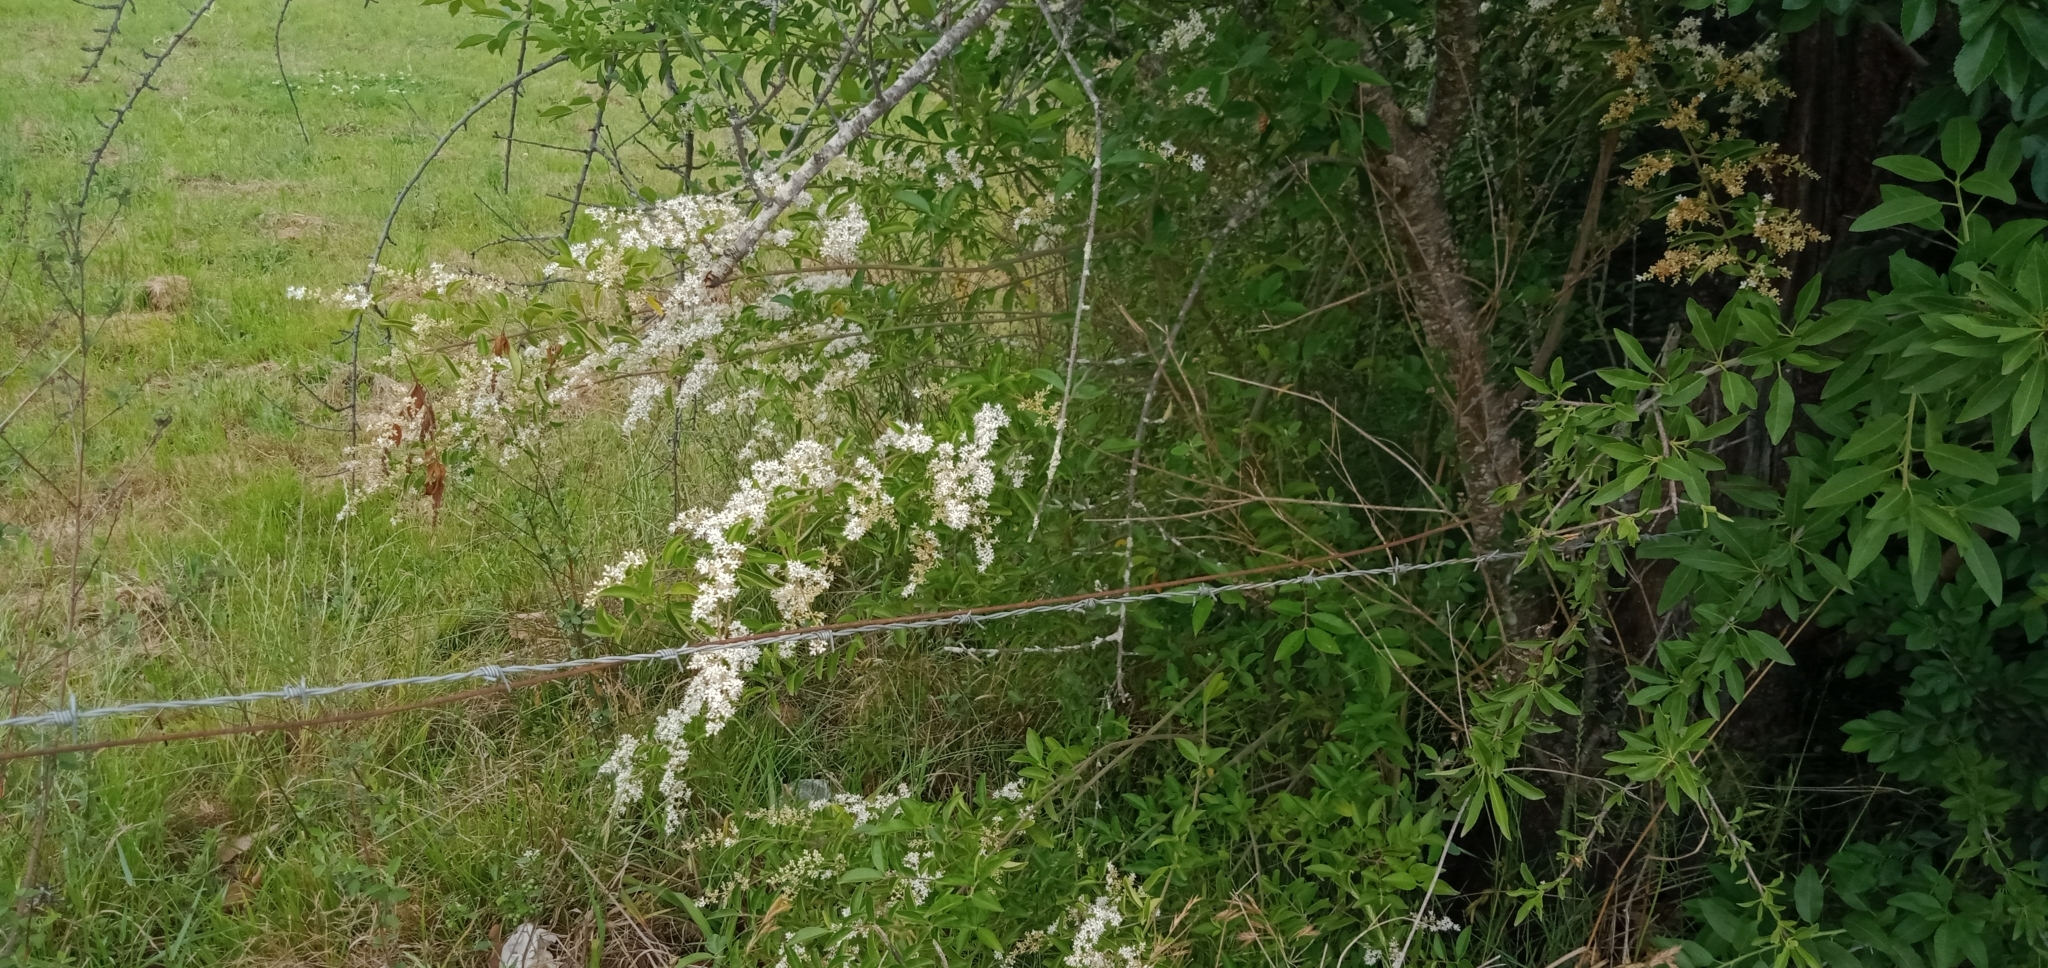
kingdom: Plantae
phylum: Tracheophyta
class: Magnoliopsida
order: Lamiales
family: Oleaceae
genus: Ligustrum
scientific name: Ligustrum sinense
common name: Chinese privet
